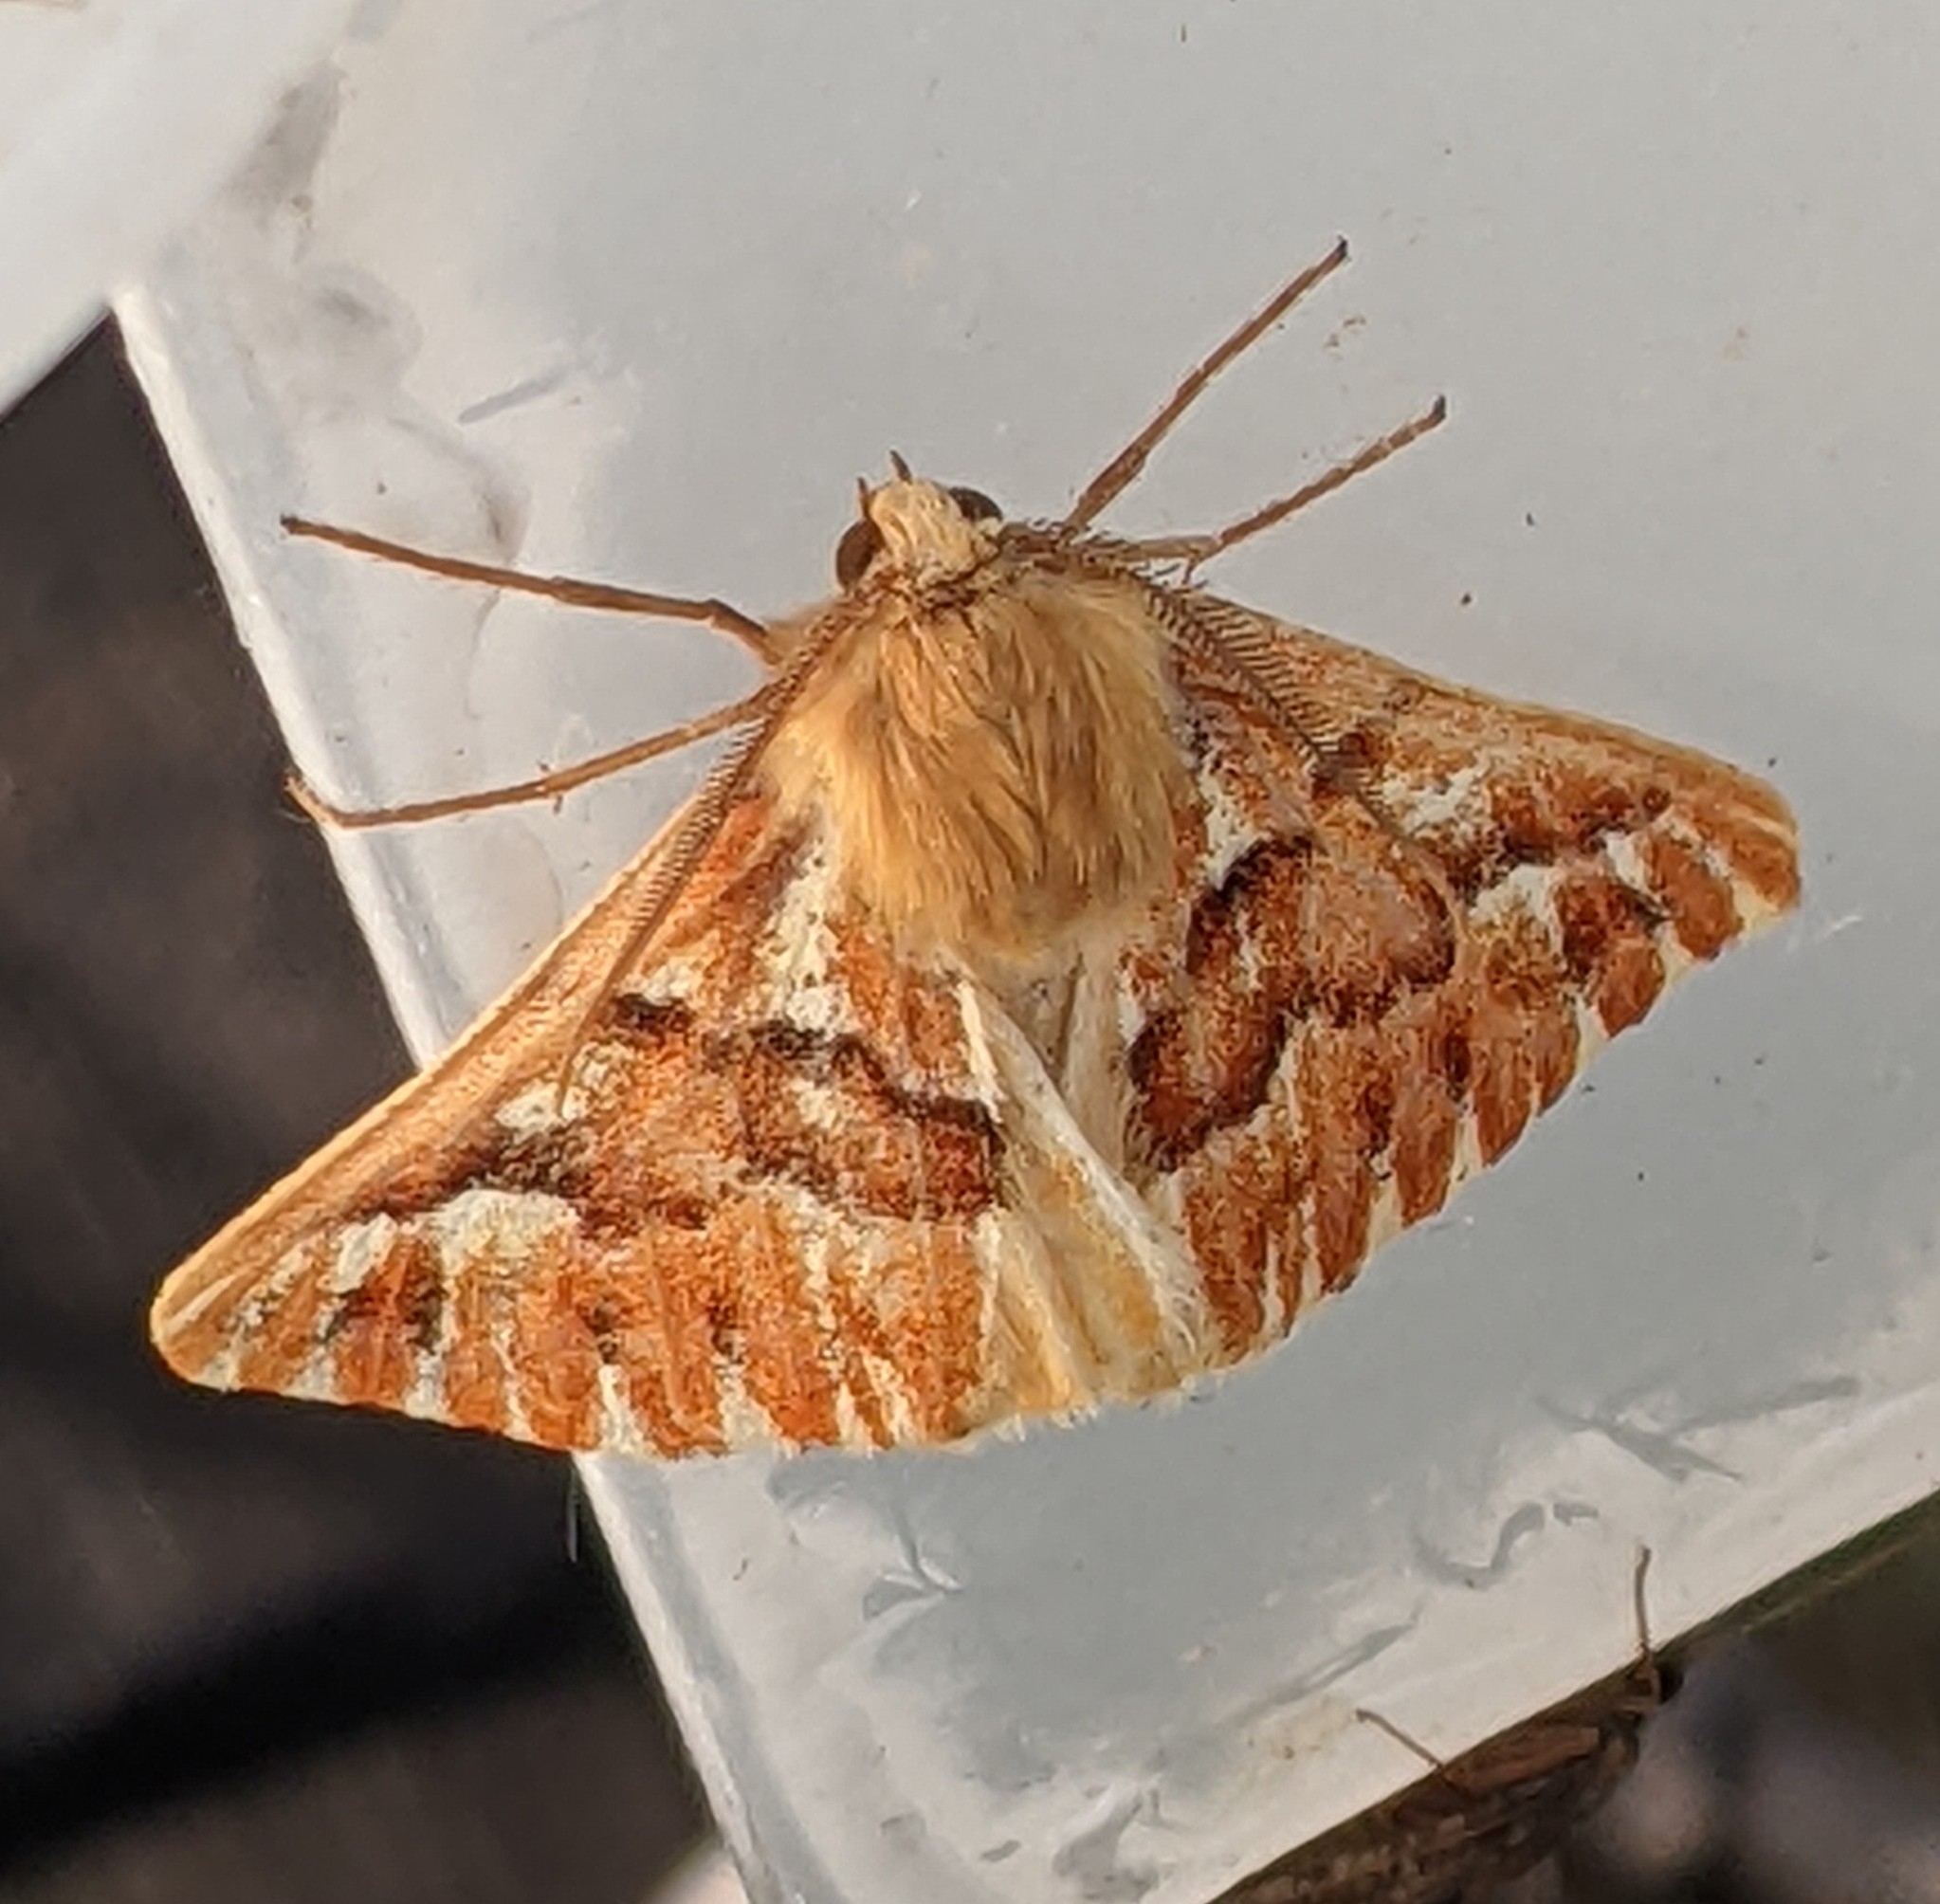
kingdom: Animalia
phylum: Arthropoda
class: Insecta
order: Lepidoptera
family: Geometridae
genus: Caripeta
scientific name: Caripeta aequaliaria
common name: Red girdle moth
